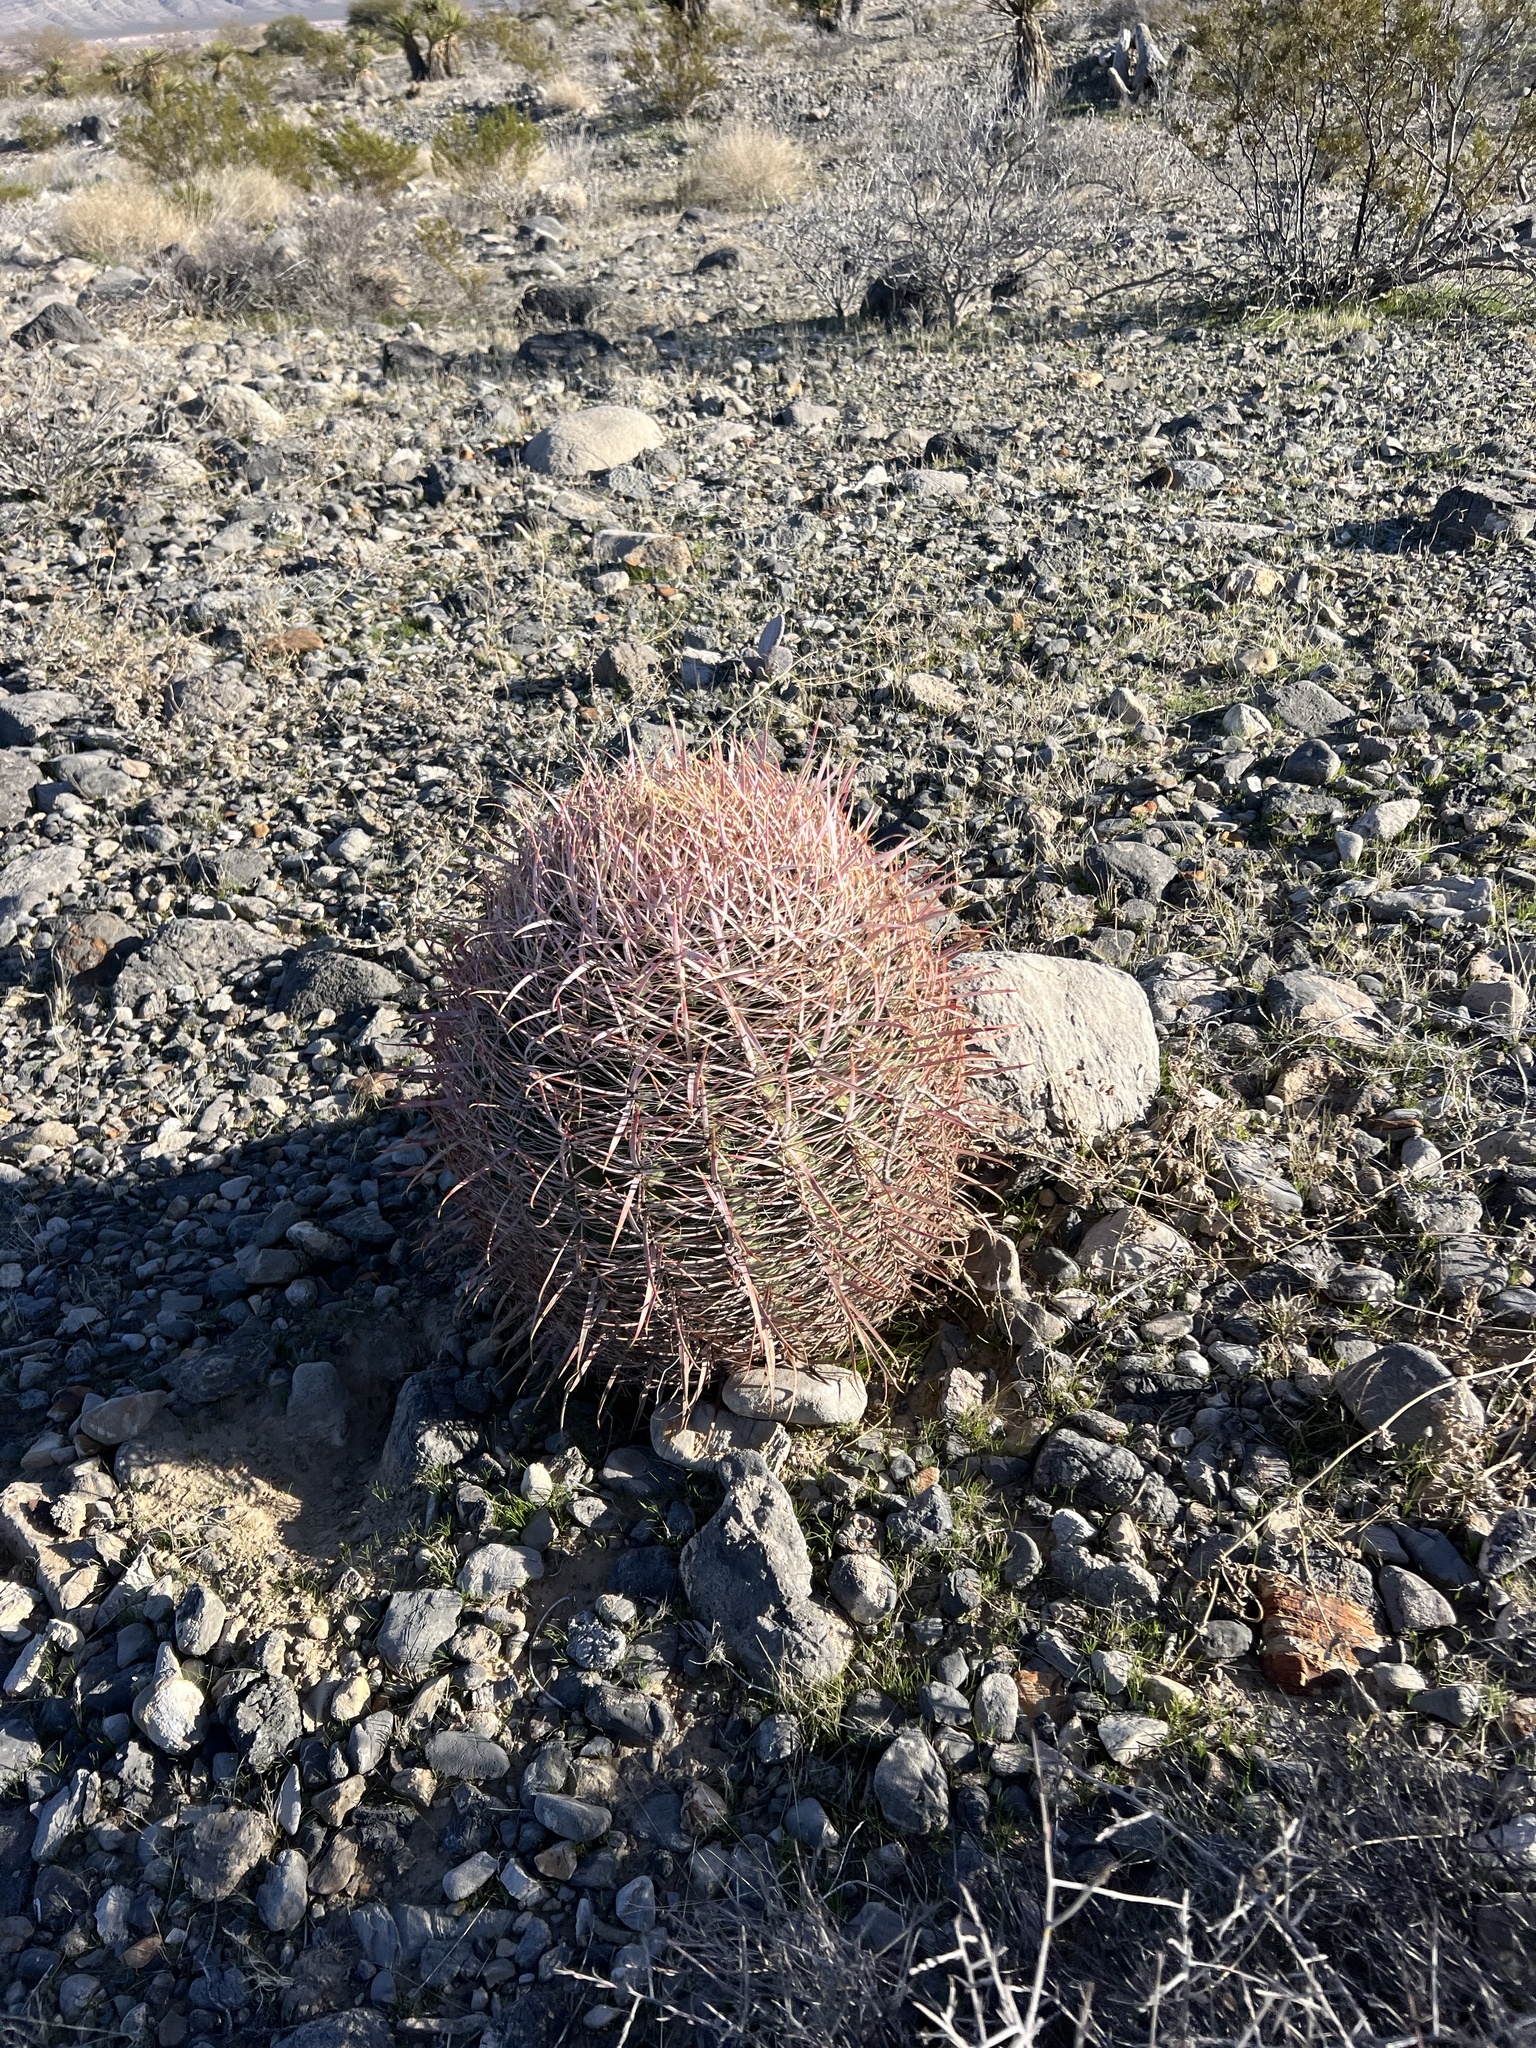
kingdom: Plantae
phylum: Tracheophyta
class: Magnoliopsida
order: Caryophyllales
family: Cactaceae
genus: Ferocactus
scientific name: Ferocactus cylindraceus
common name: California barrel cactus
